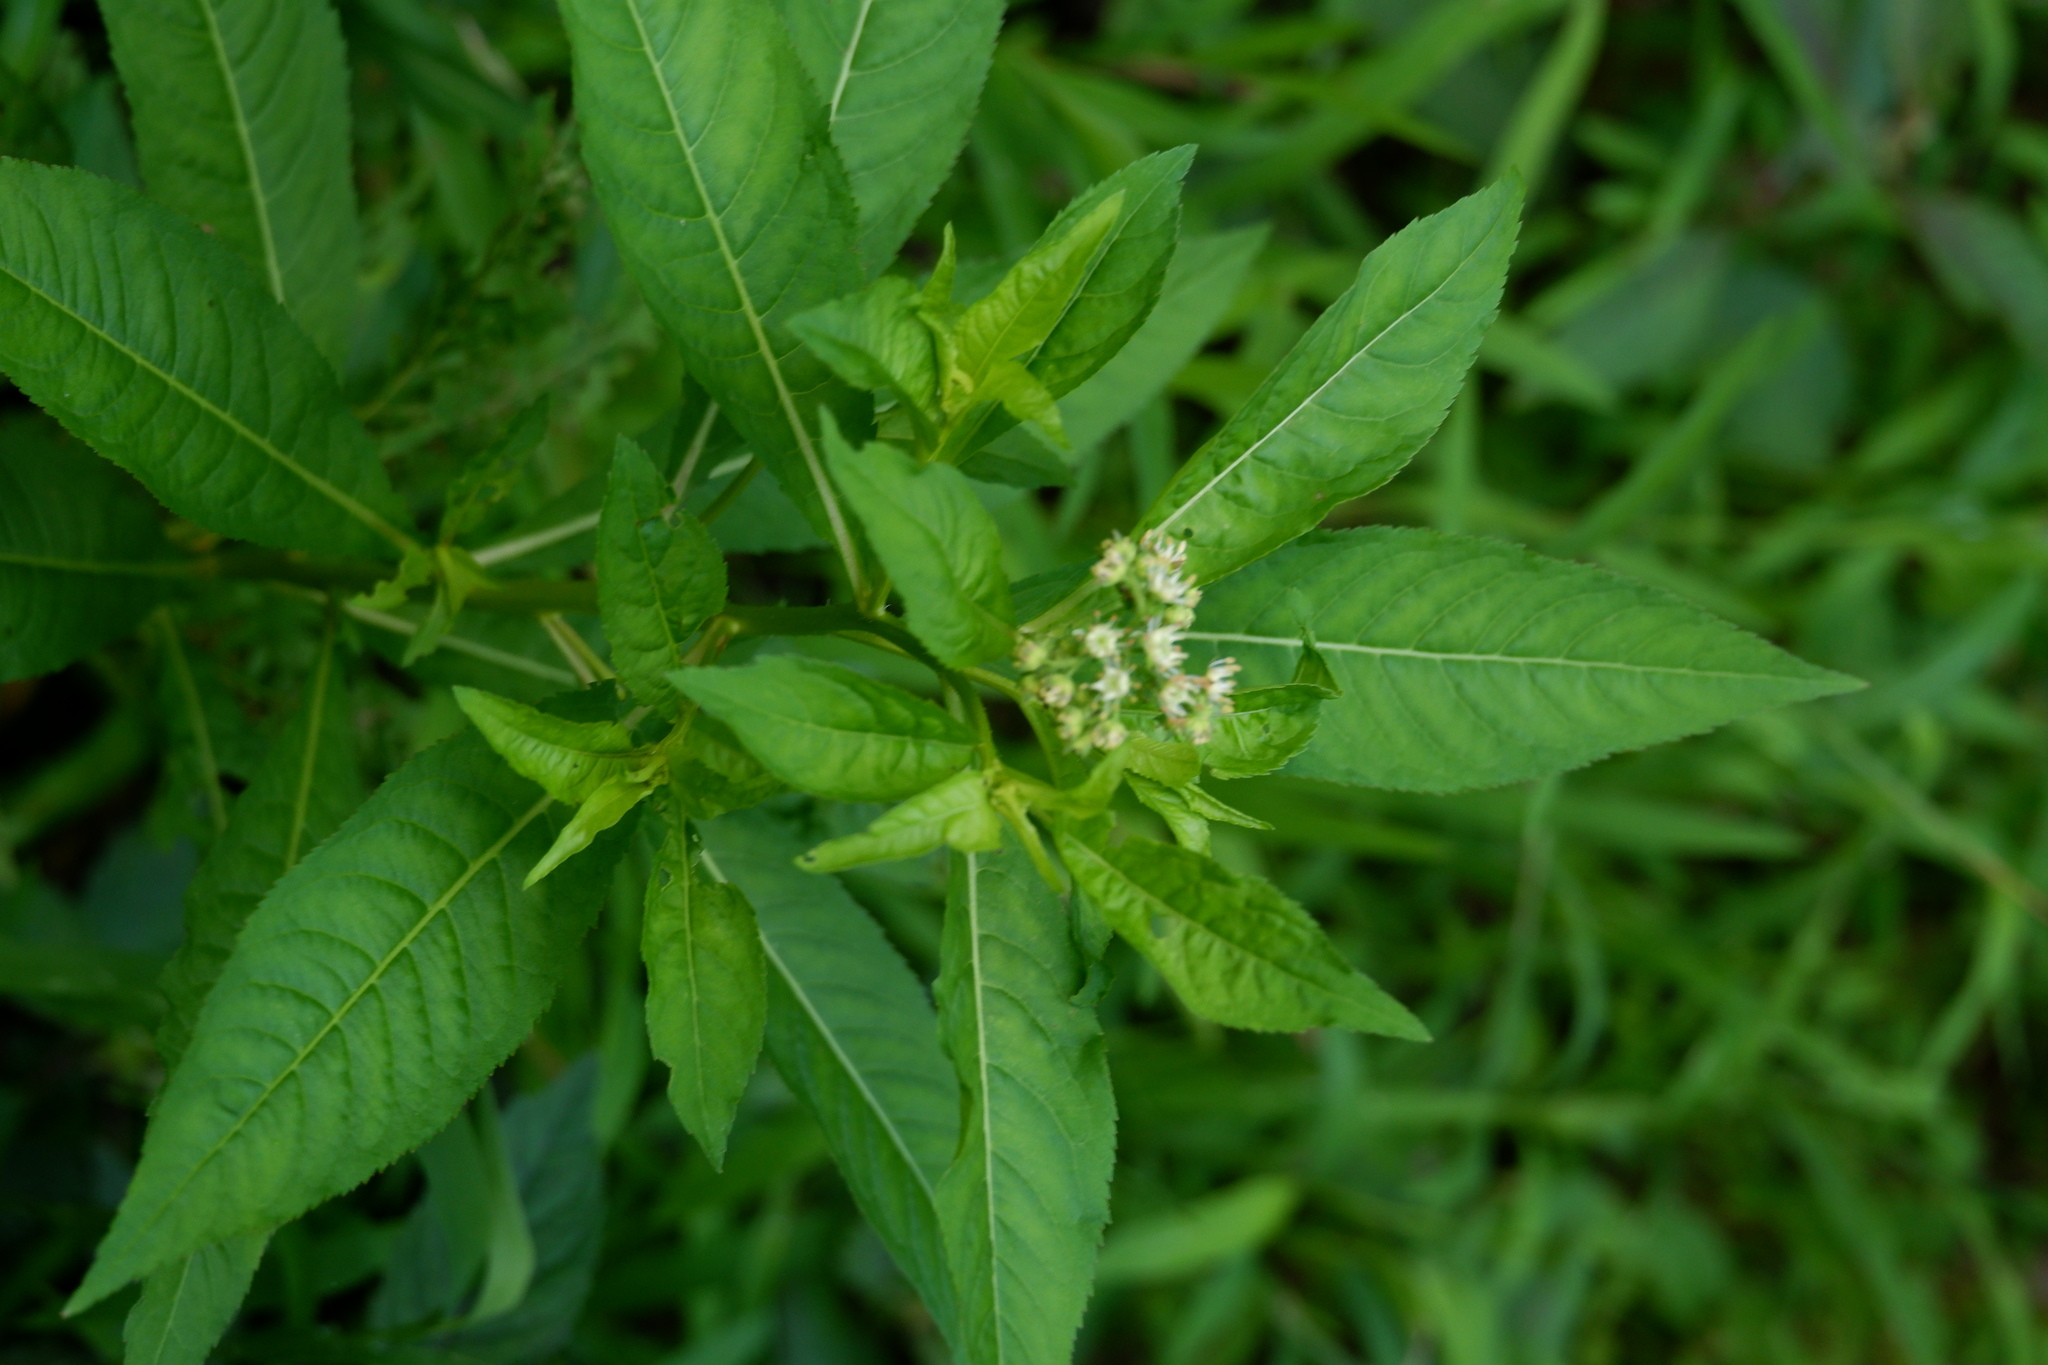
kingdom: Plantae
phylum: Tracheophyta
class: Magnoliopsida
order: Saxifragales
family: Penthoraceae
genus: Penthorum
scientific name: Penthorum sedoides
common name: Ditch stonecrop
